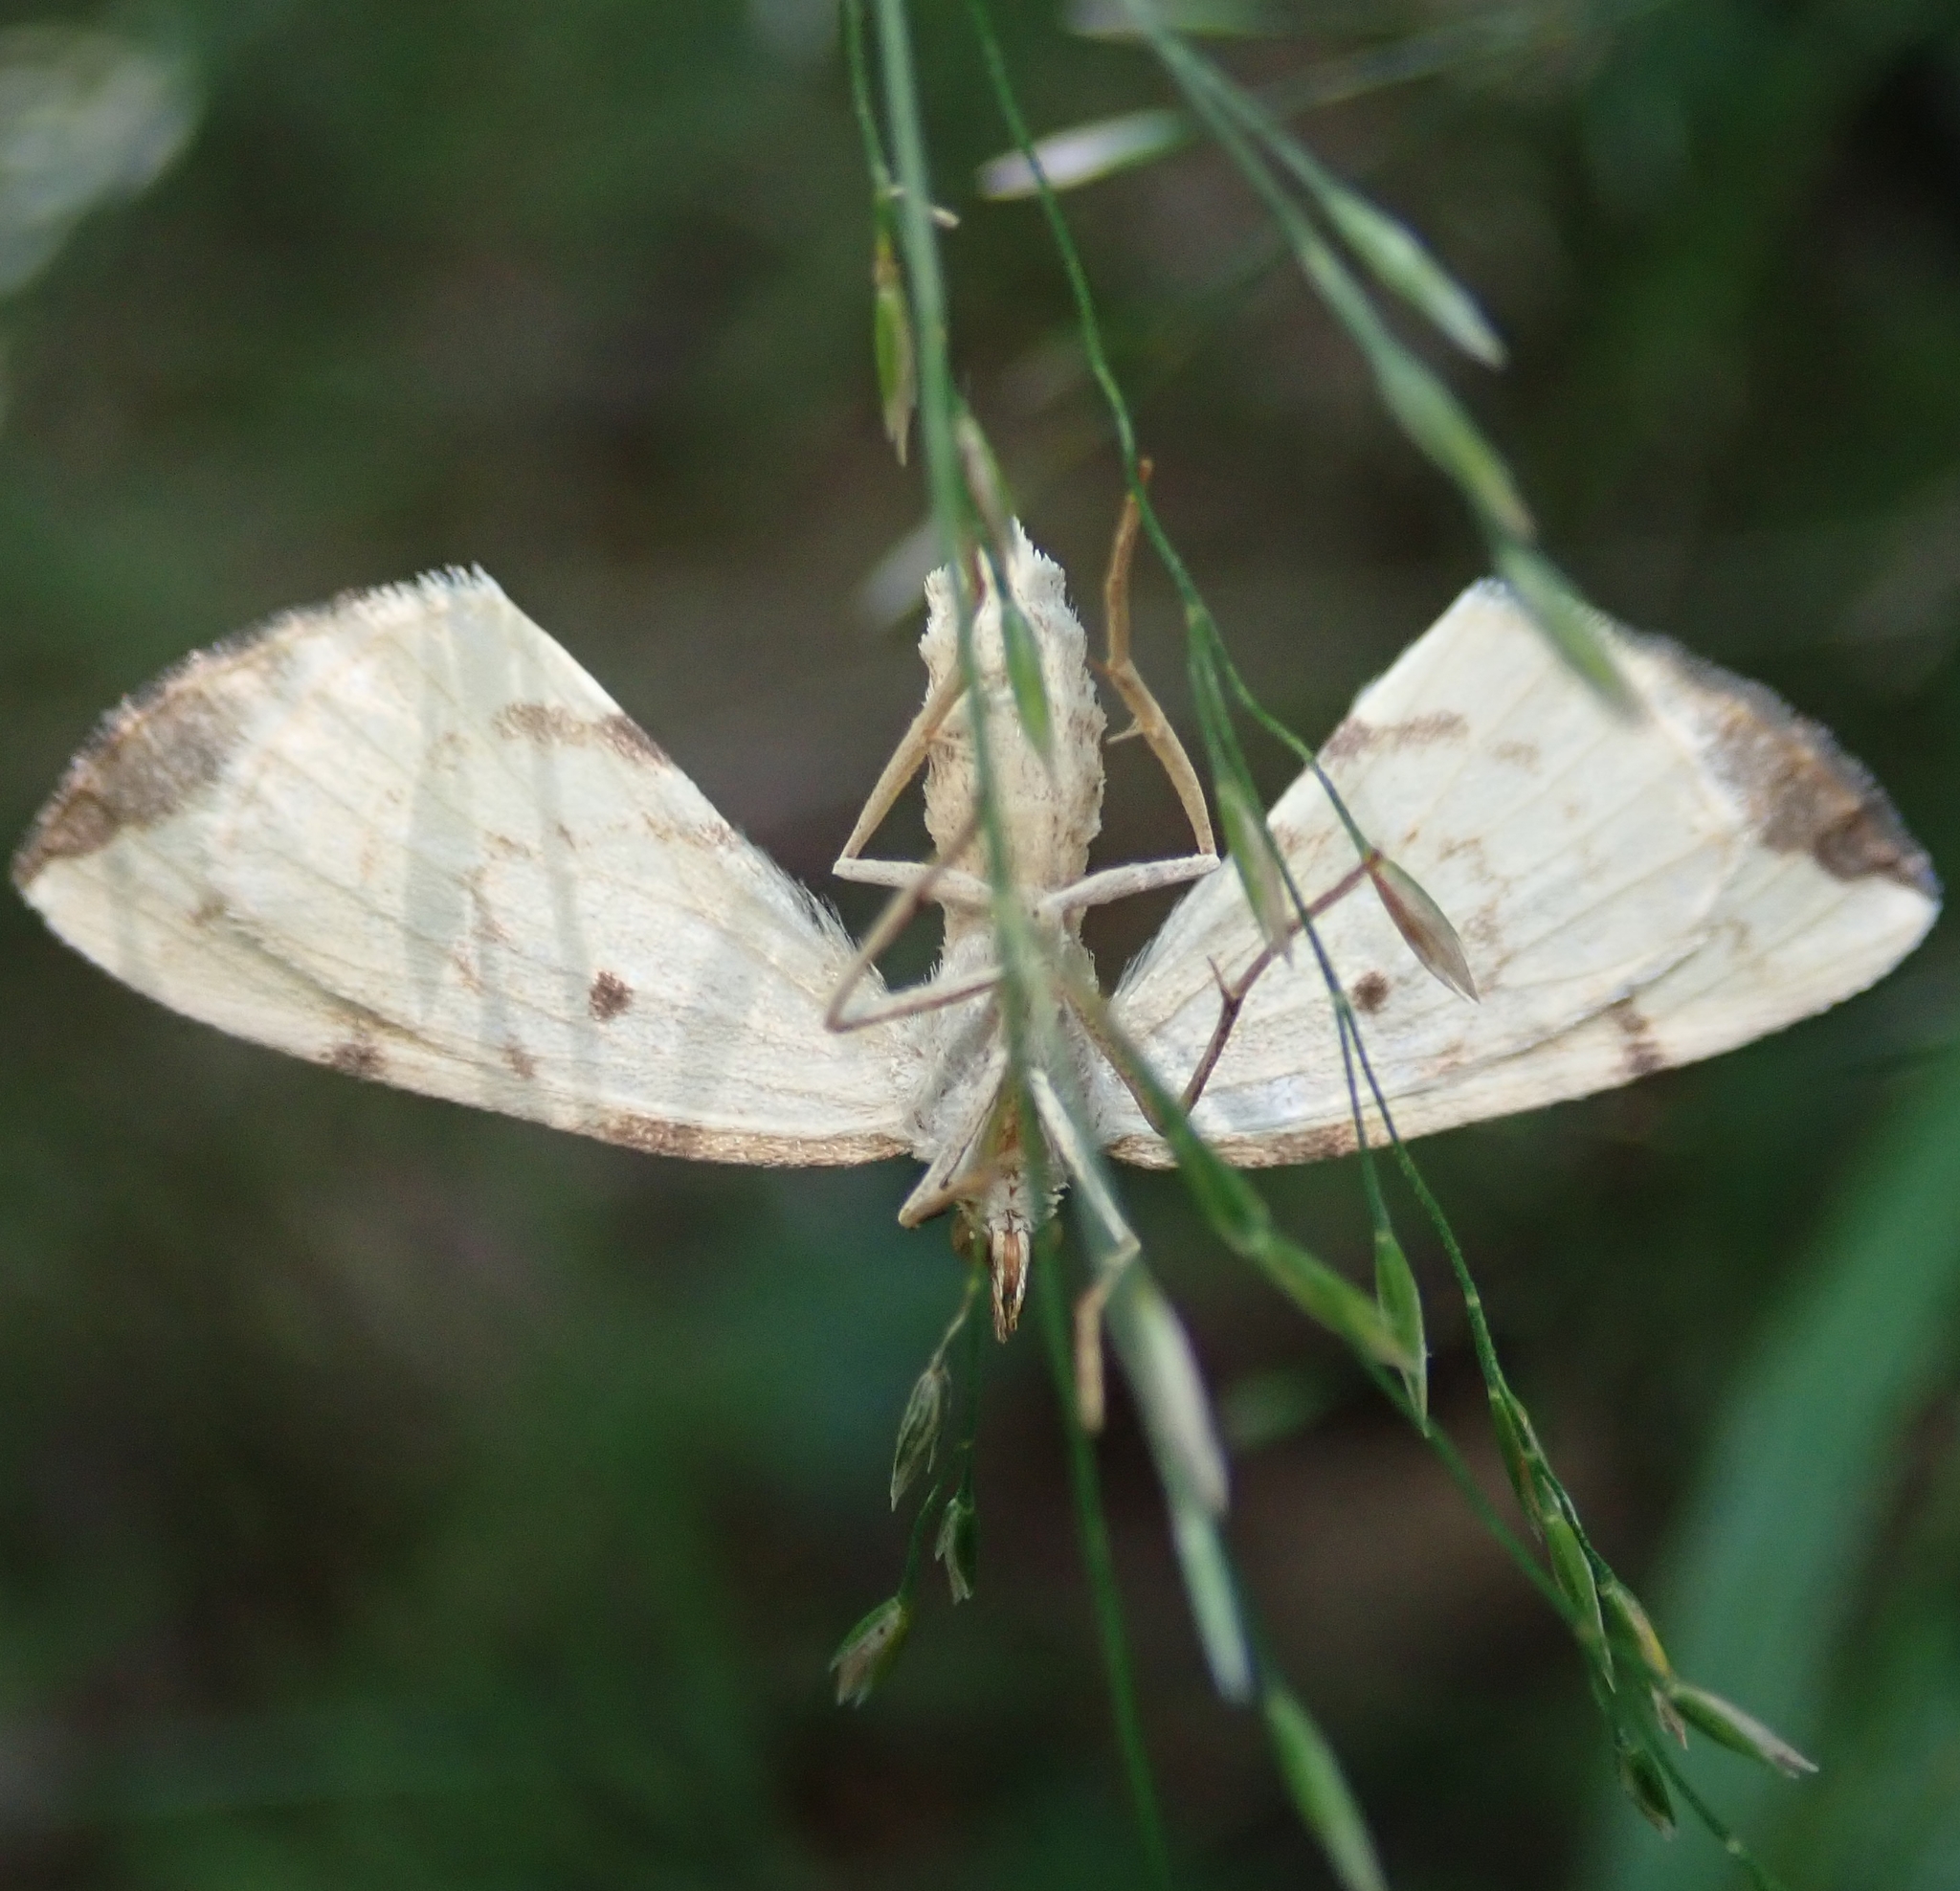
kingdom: Animalia
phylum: Arthropoda
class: Insecta
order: Lepidoptera
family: Geometridae
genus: Eulithis
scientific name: Eulithis pyraliata
